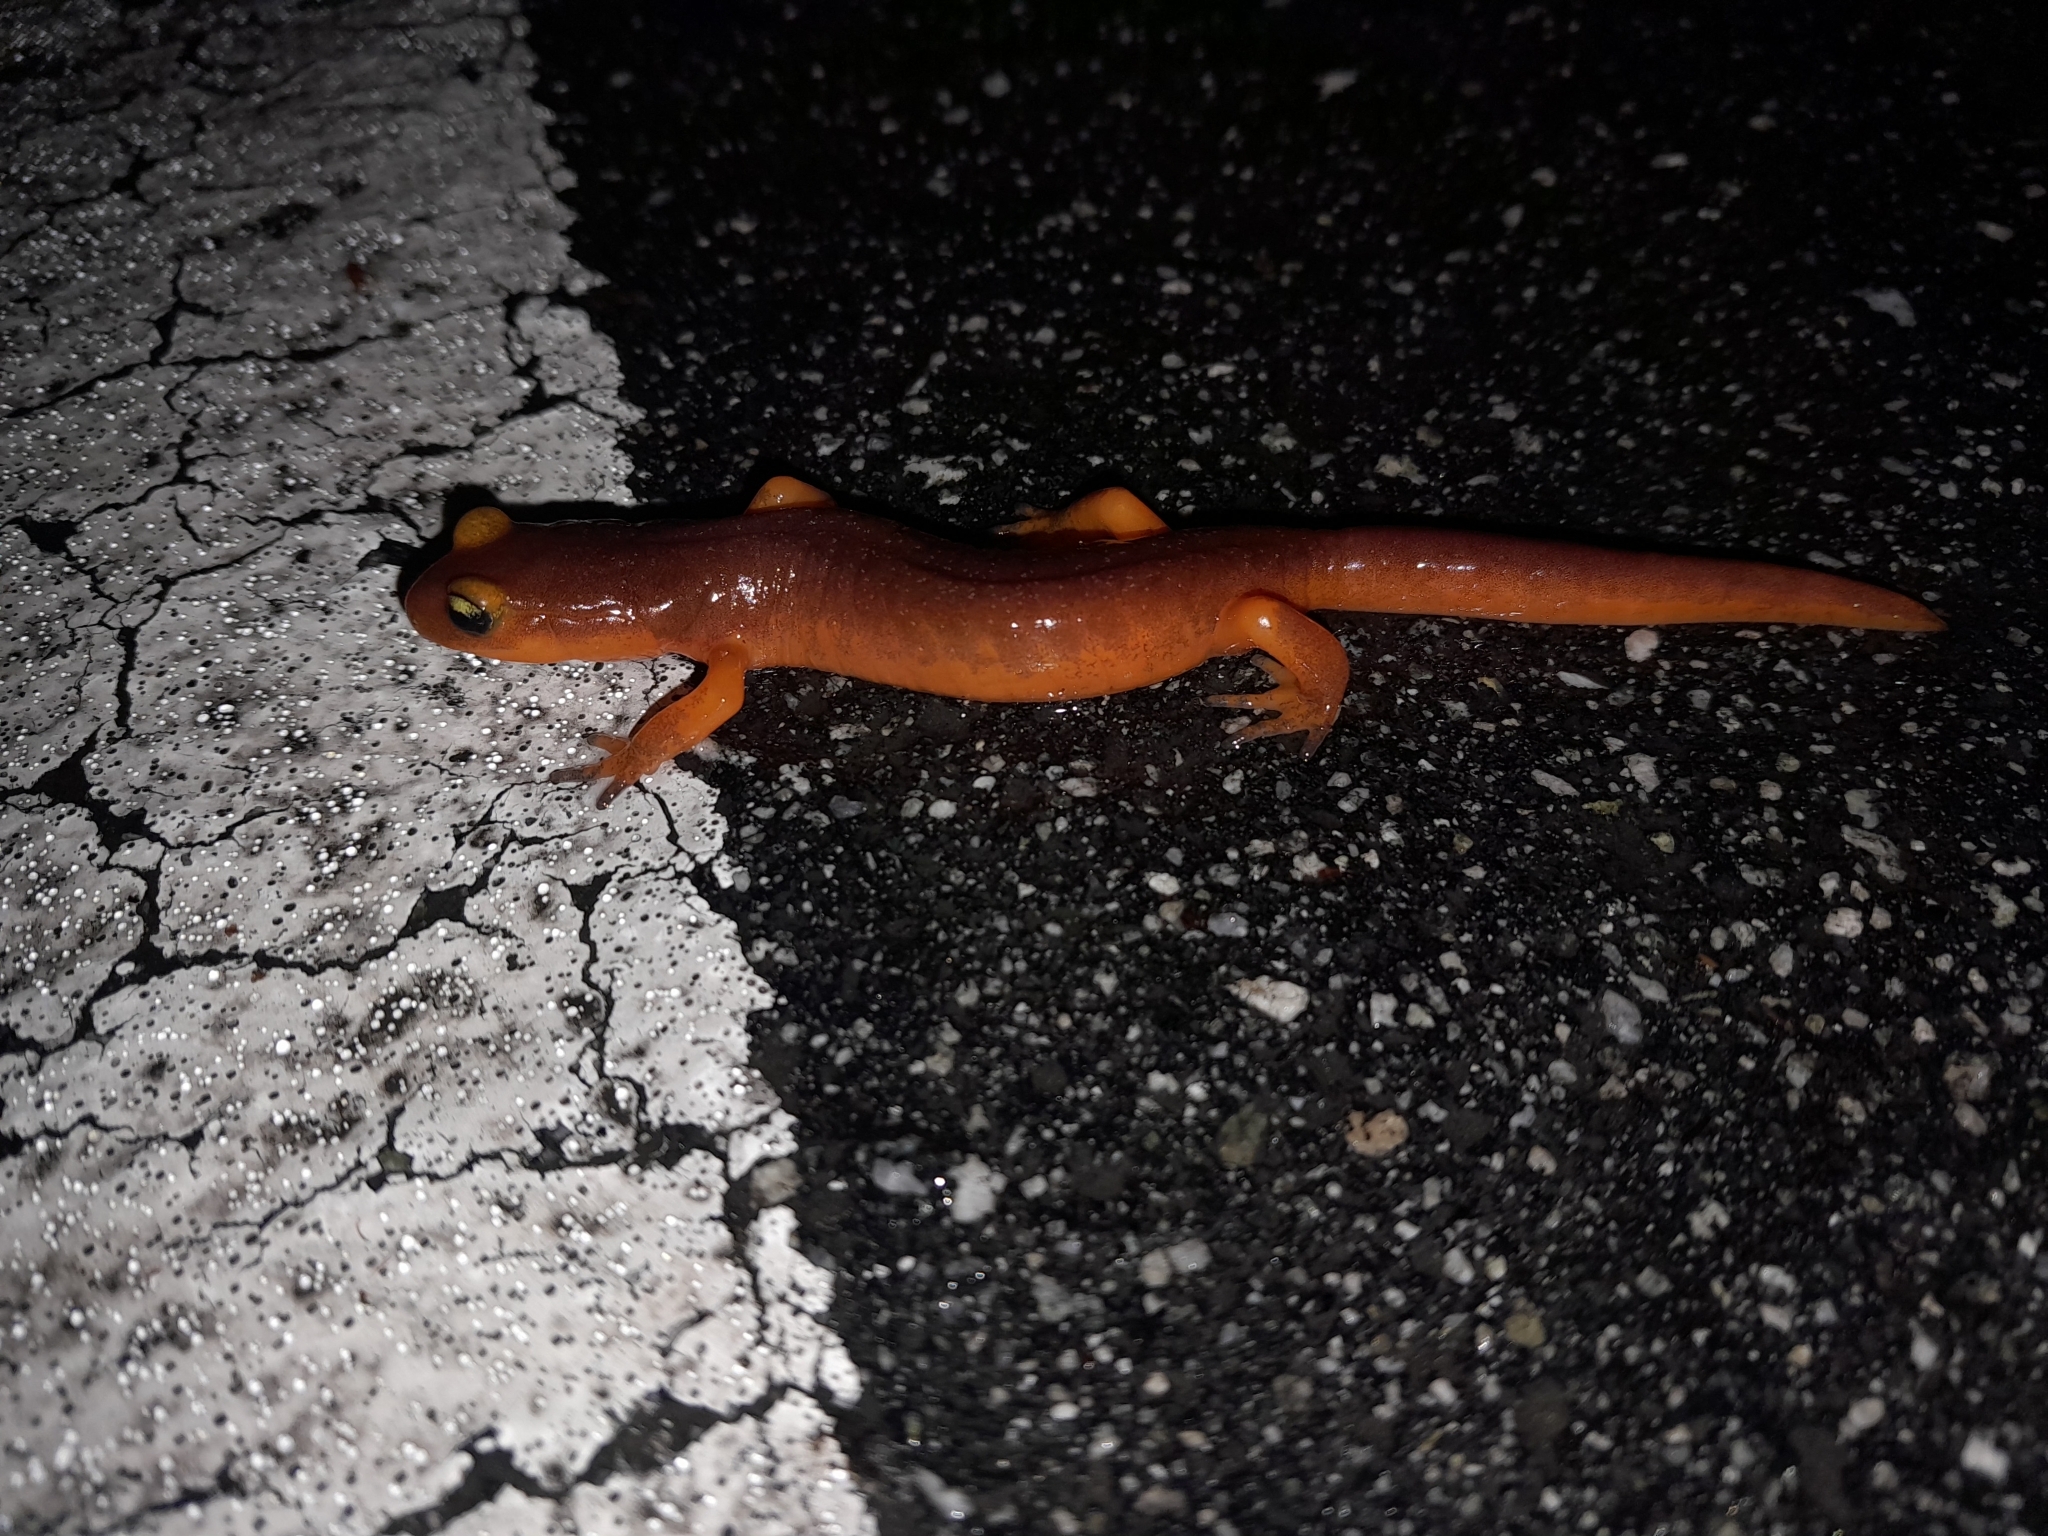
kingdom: Animalia
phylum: Chordata
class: Amphibia
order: Caudata
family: Plethodontidae
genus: Ensatina
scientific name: Ensatina eschscholtzii
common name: Ensatina
